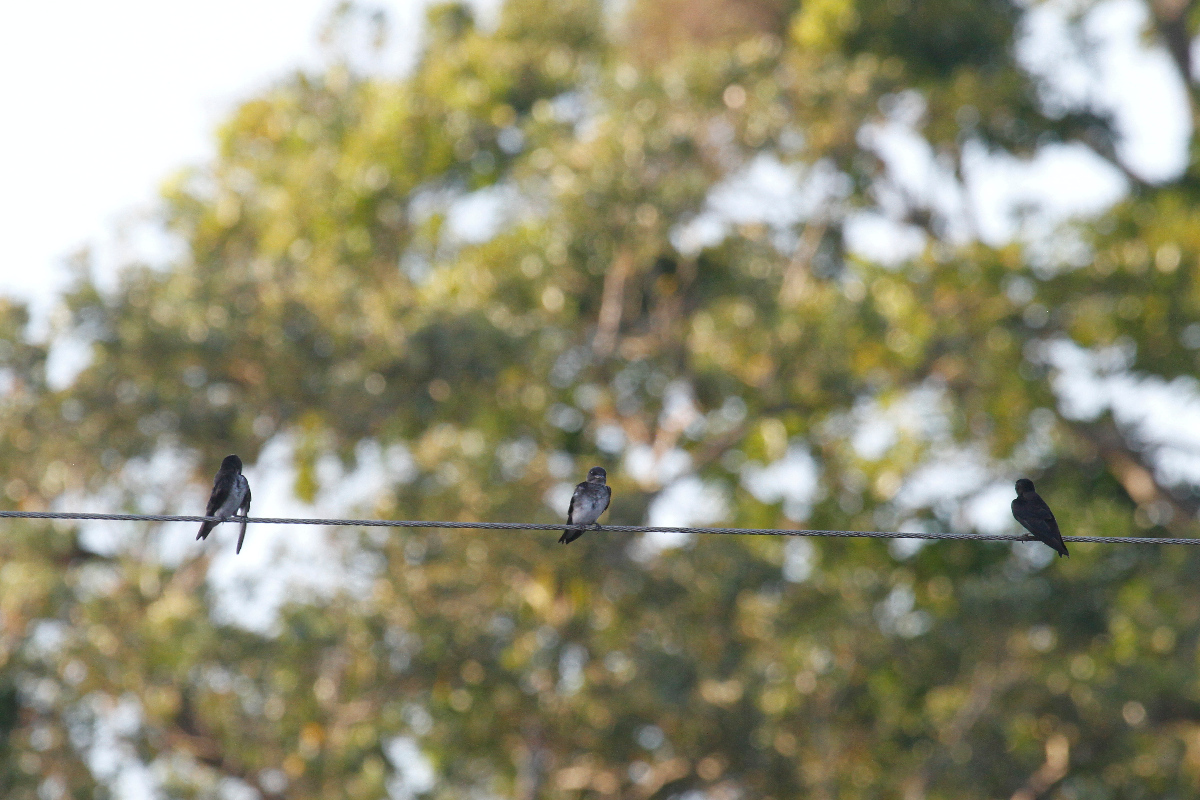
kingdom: Animalia
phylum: Chordata
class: Aves
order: Passeriformes
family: Hirundinidae
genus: Progne
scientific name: Progne chalybea
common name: Grey-breasted martin
